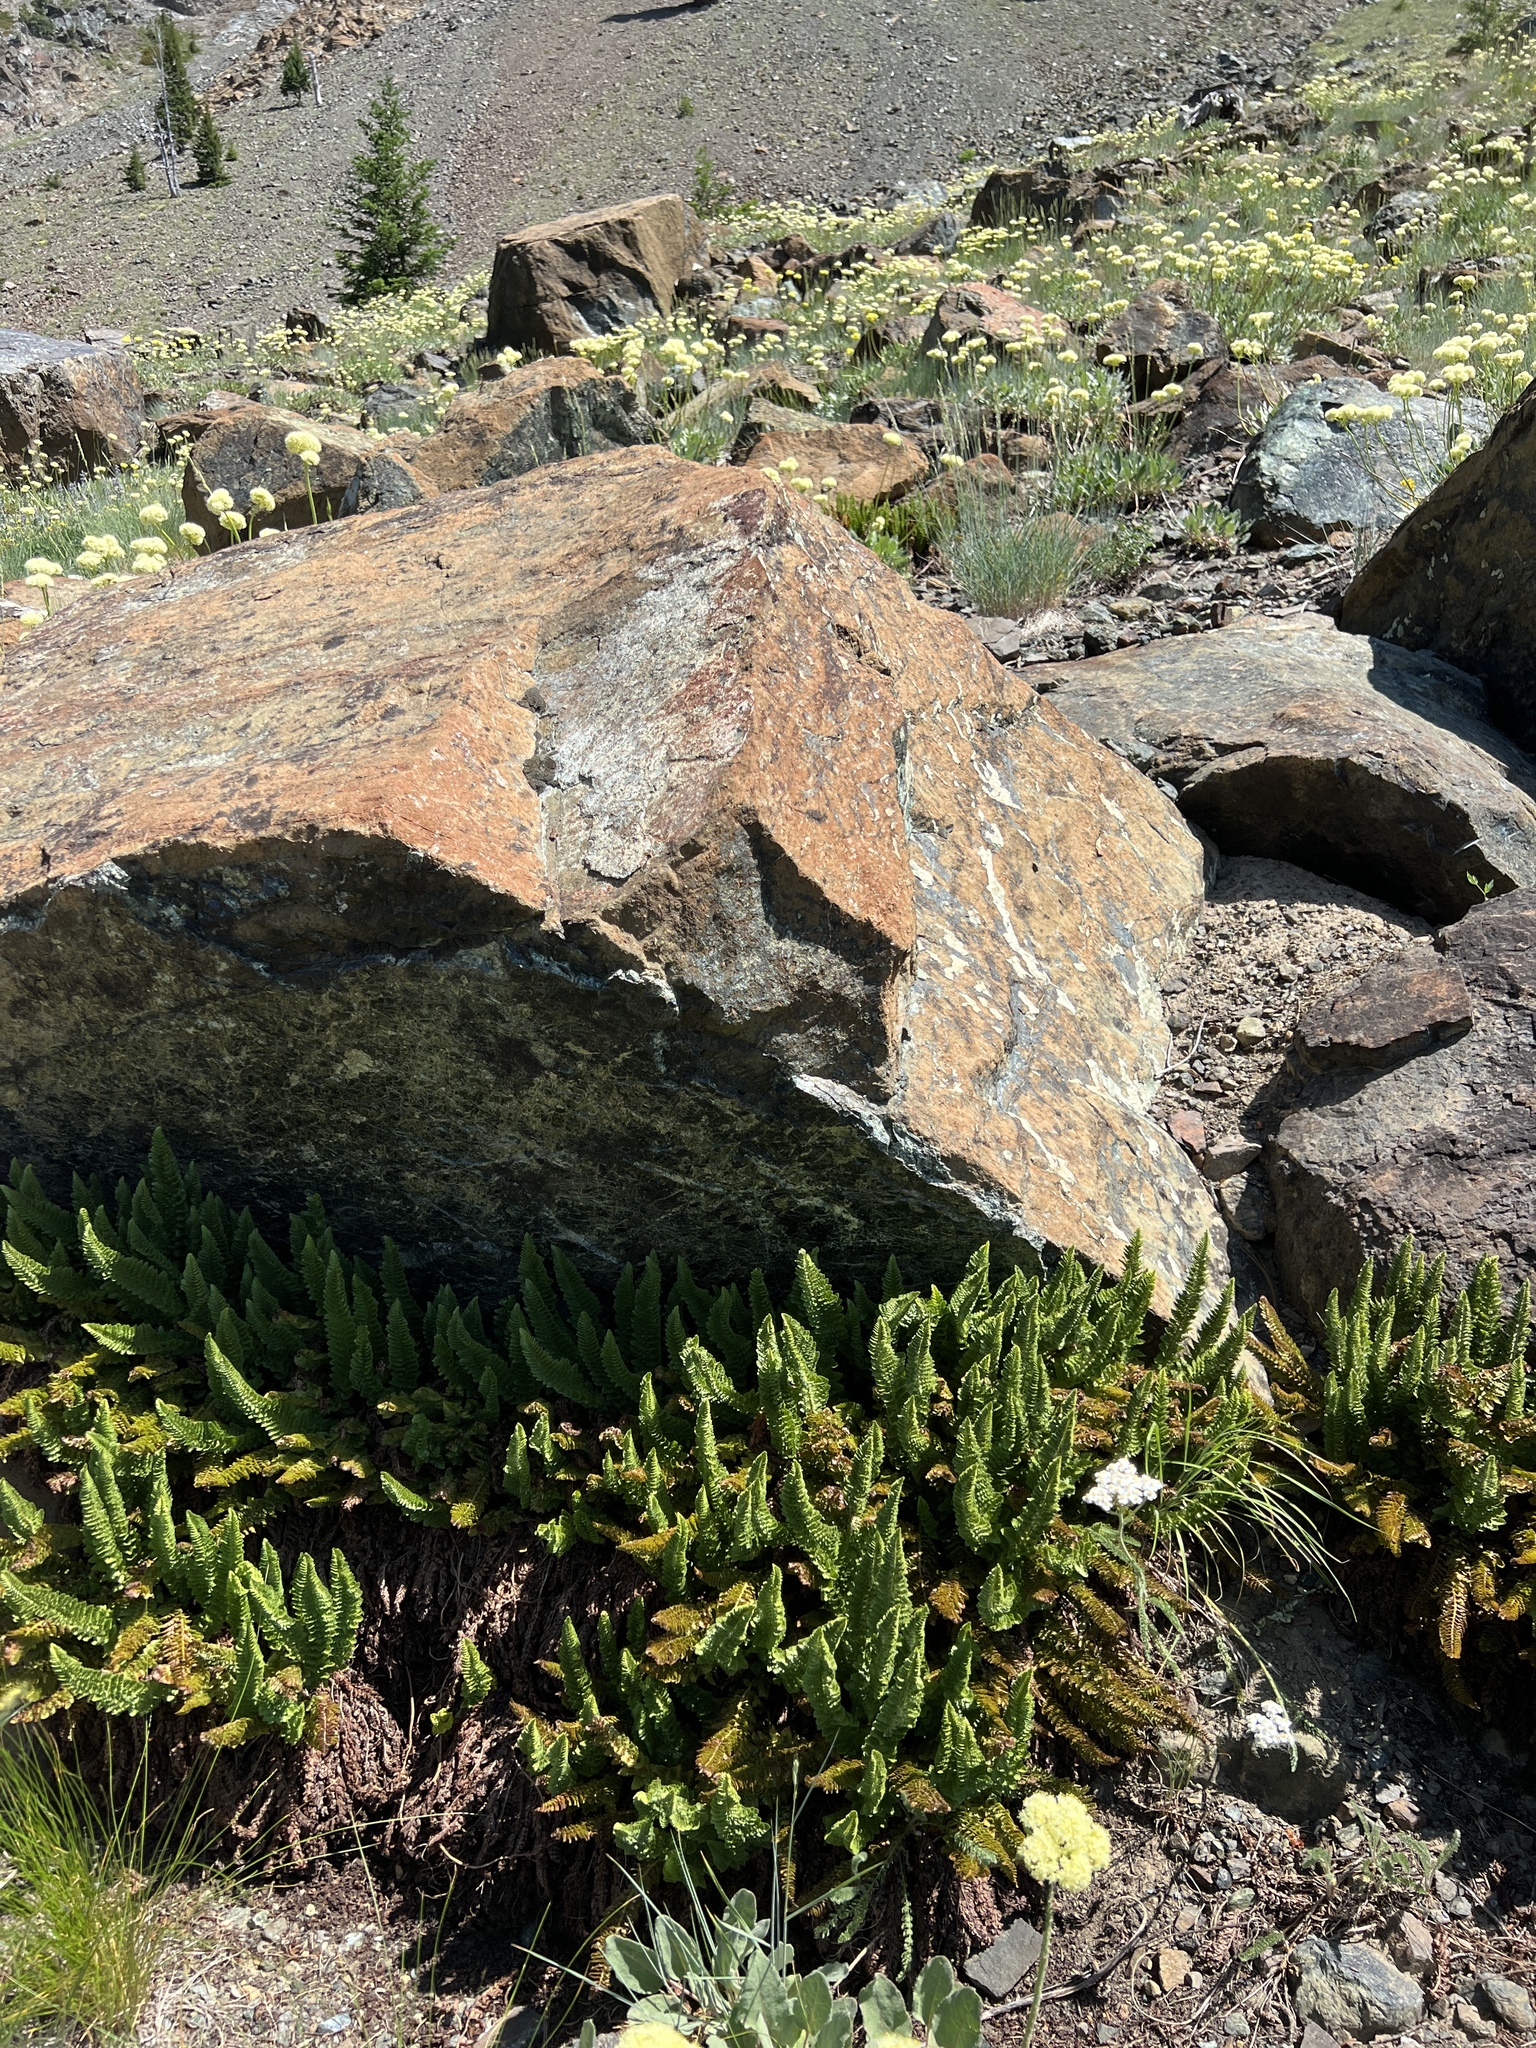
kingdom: Plantae
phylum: Tracheophyta
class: Polypodiopsida
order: Polypodiales
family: Dryopteridaceae
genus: Polystichum
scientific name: Polystichum lemmonii
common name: Lemmon's holly fern
